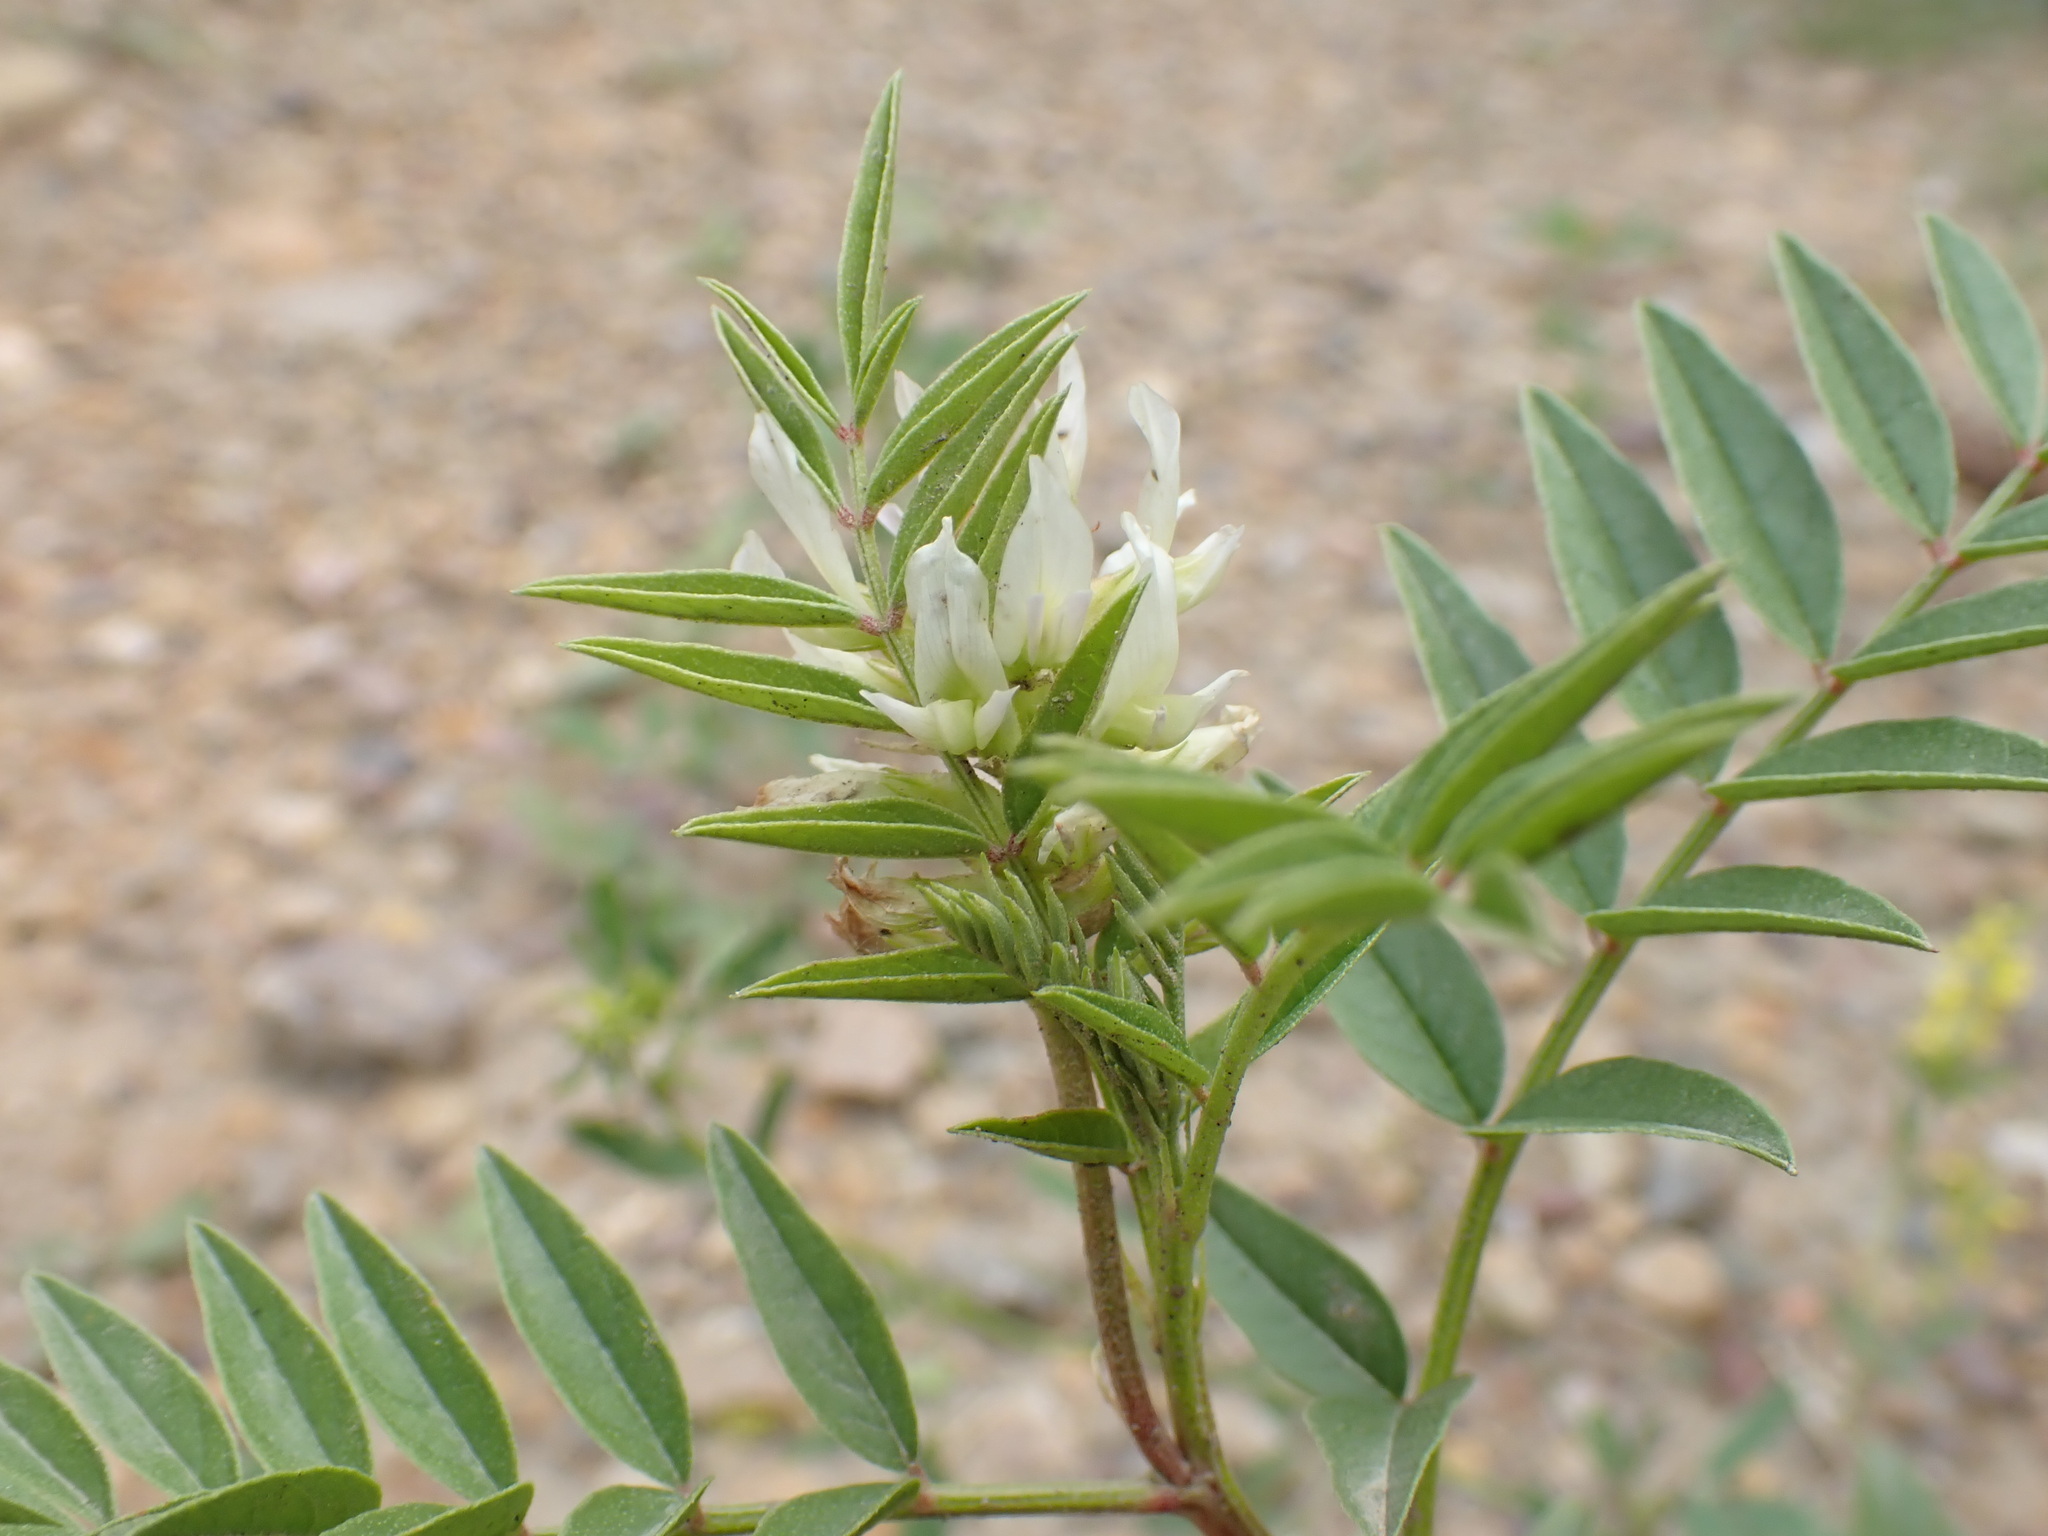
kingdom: Plantae
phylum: Tracheophyta
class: Magnoliopsida
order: Fabales
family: Fabaceae
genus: Glycyrrhiza
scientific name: Glycyrrhiza lepidota
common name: American liquorice
